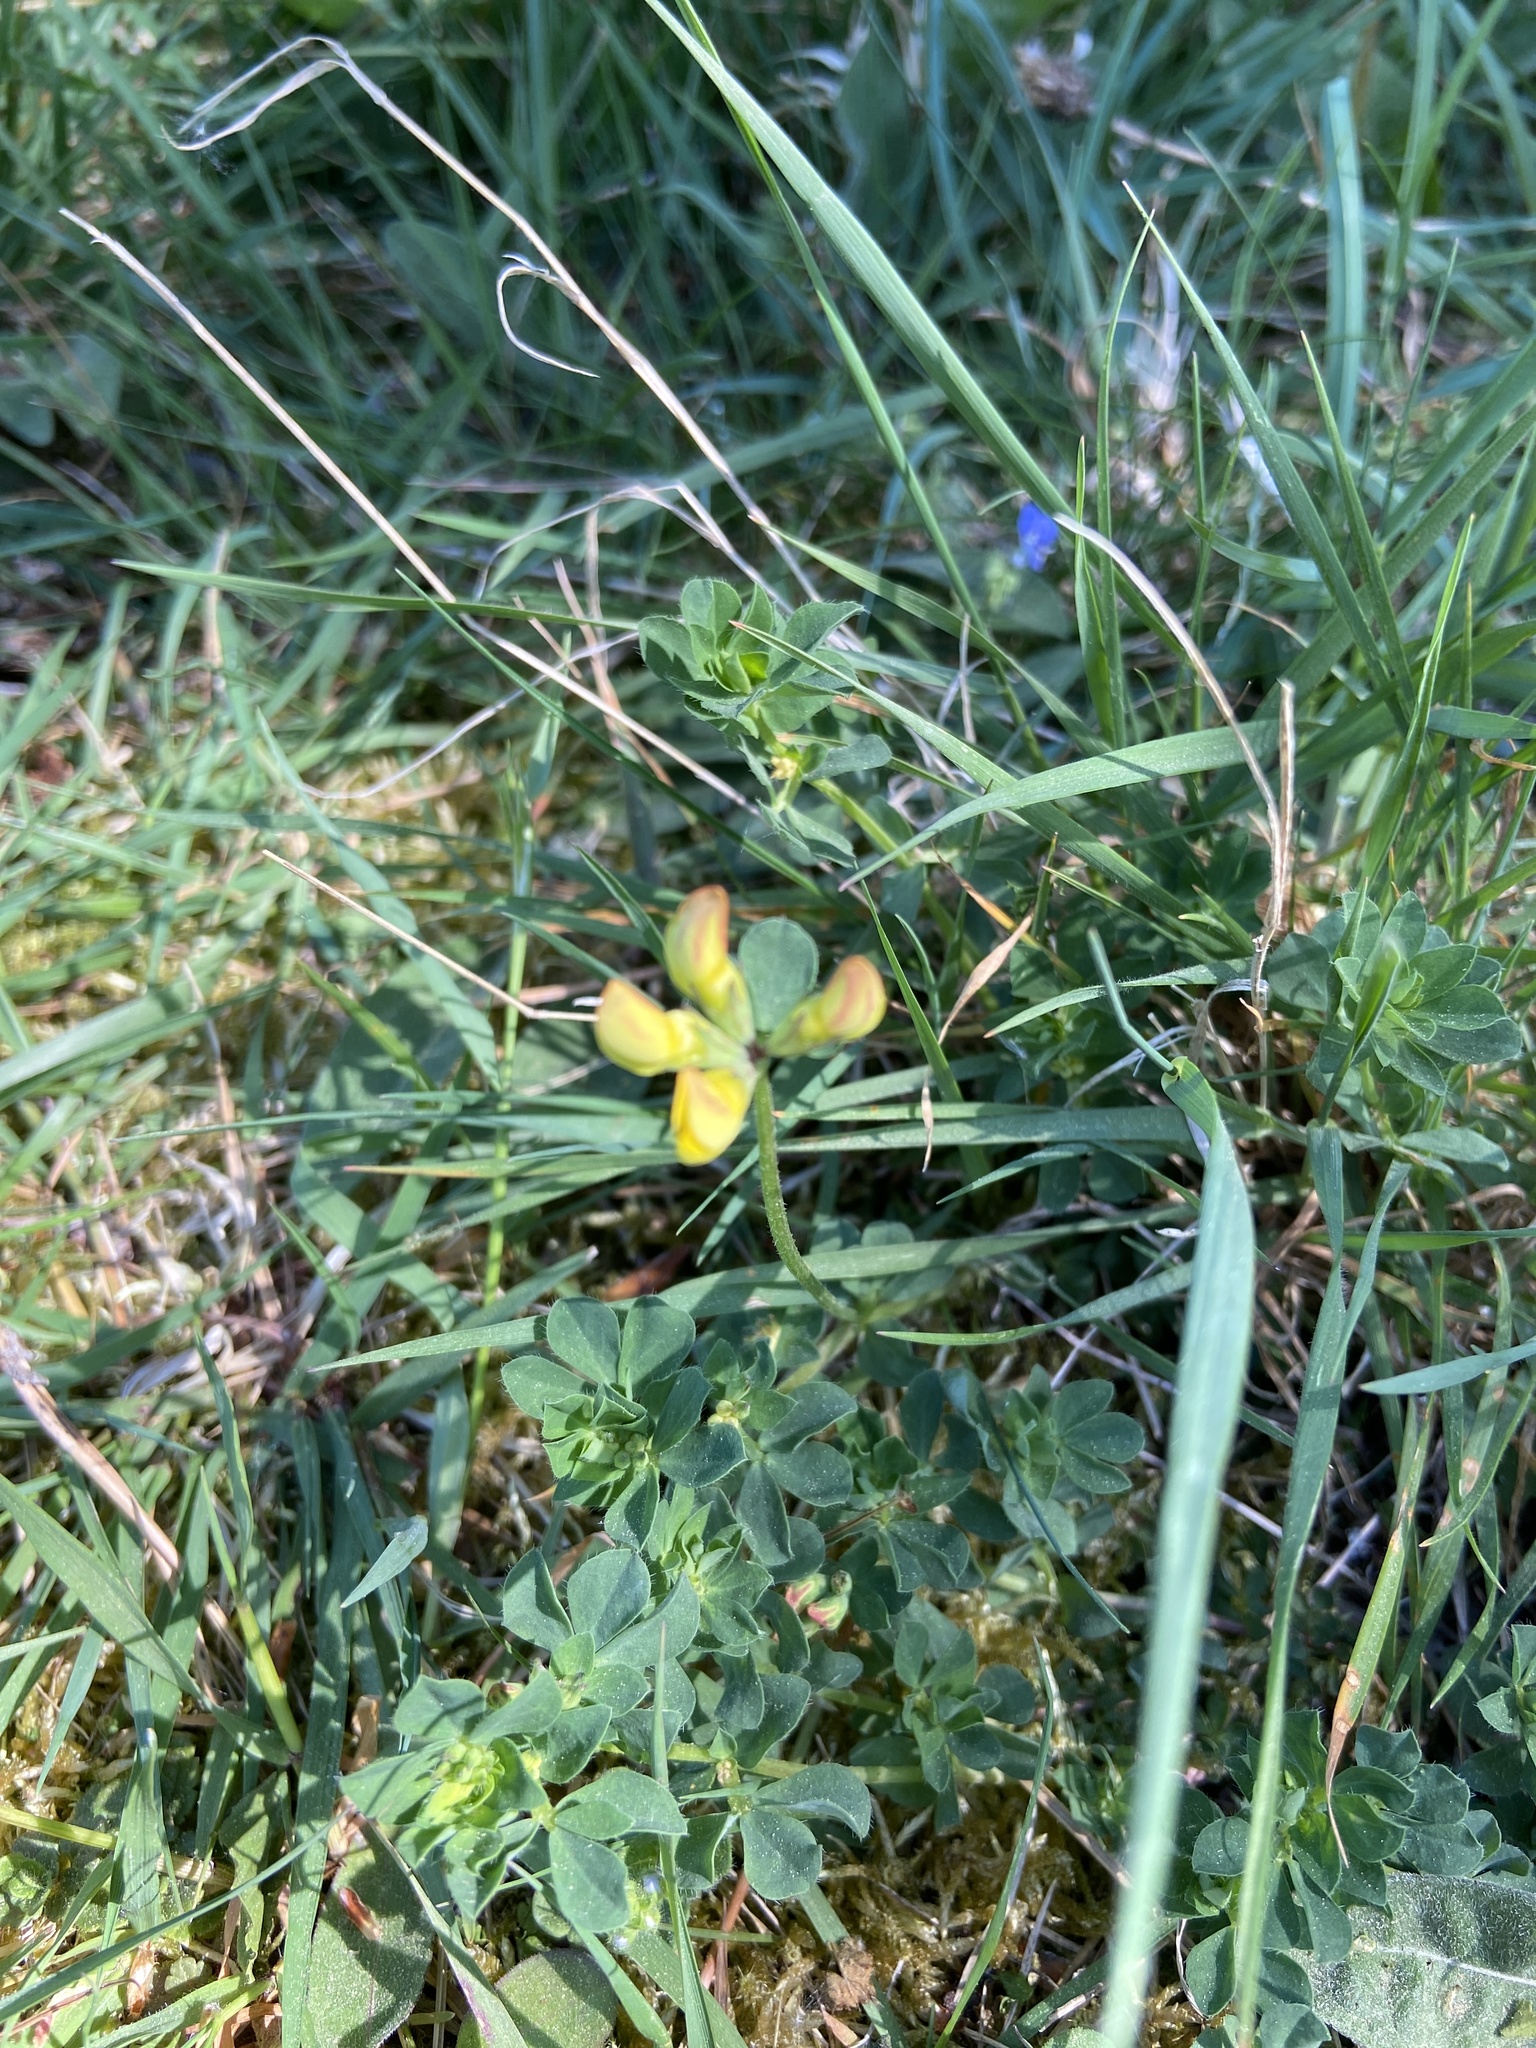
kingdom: Plantae
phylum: Tracheophyta
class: Magnoliopsida
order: Fabales
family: Fabaceae
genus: Lotus
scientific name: Lotus corniculatus
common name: Common bird's-foot-trefoil
